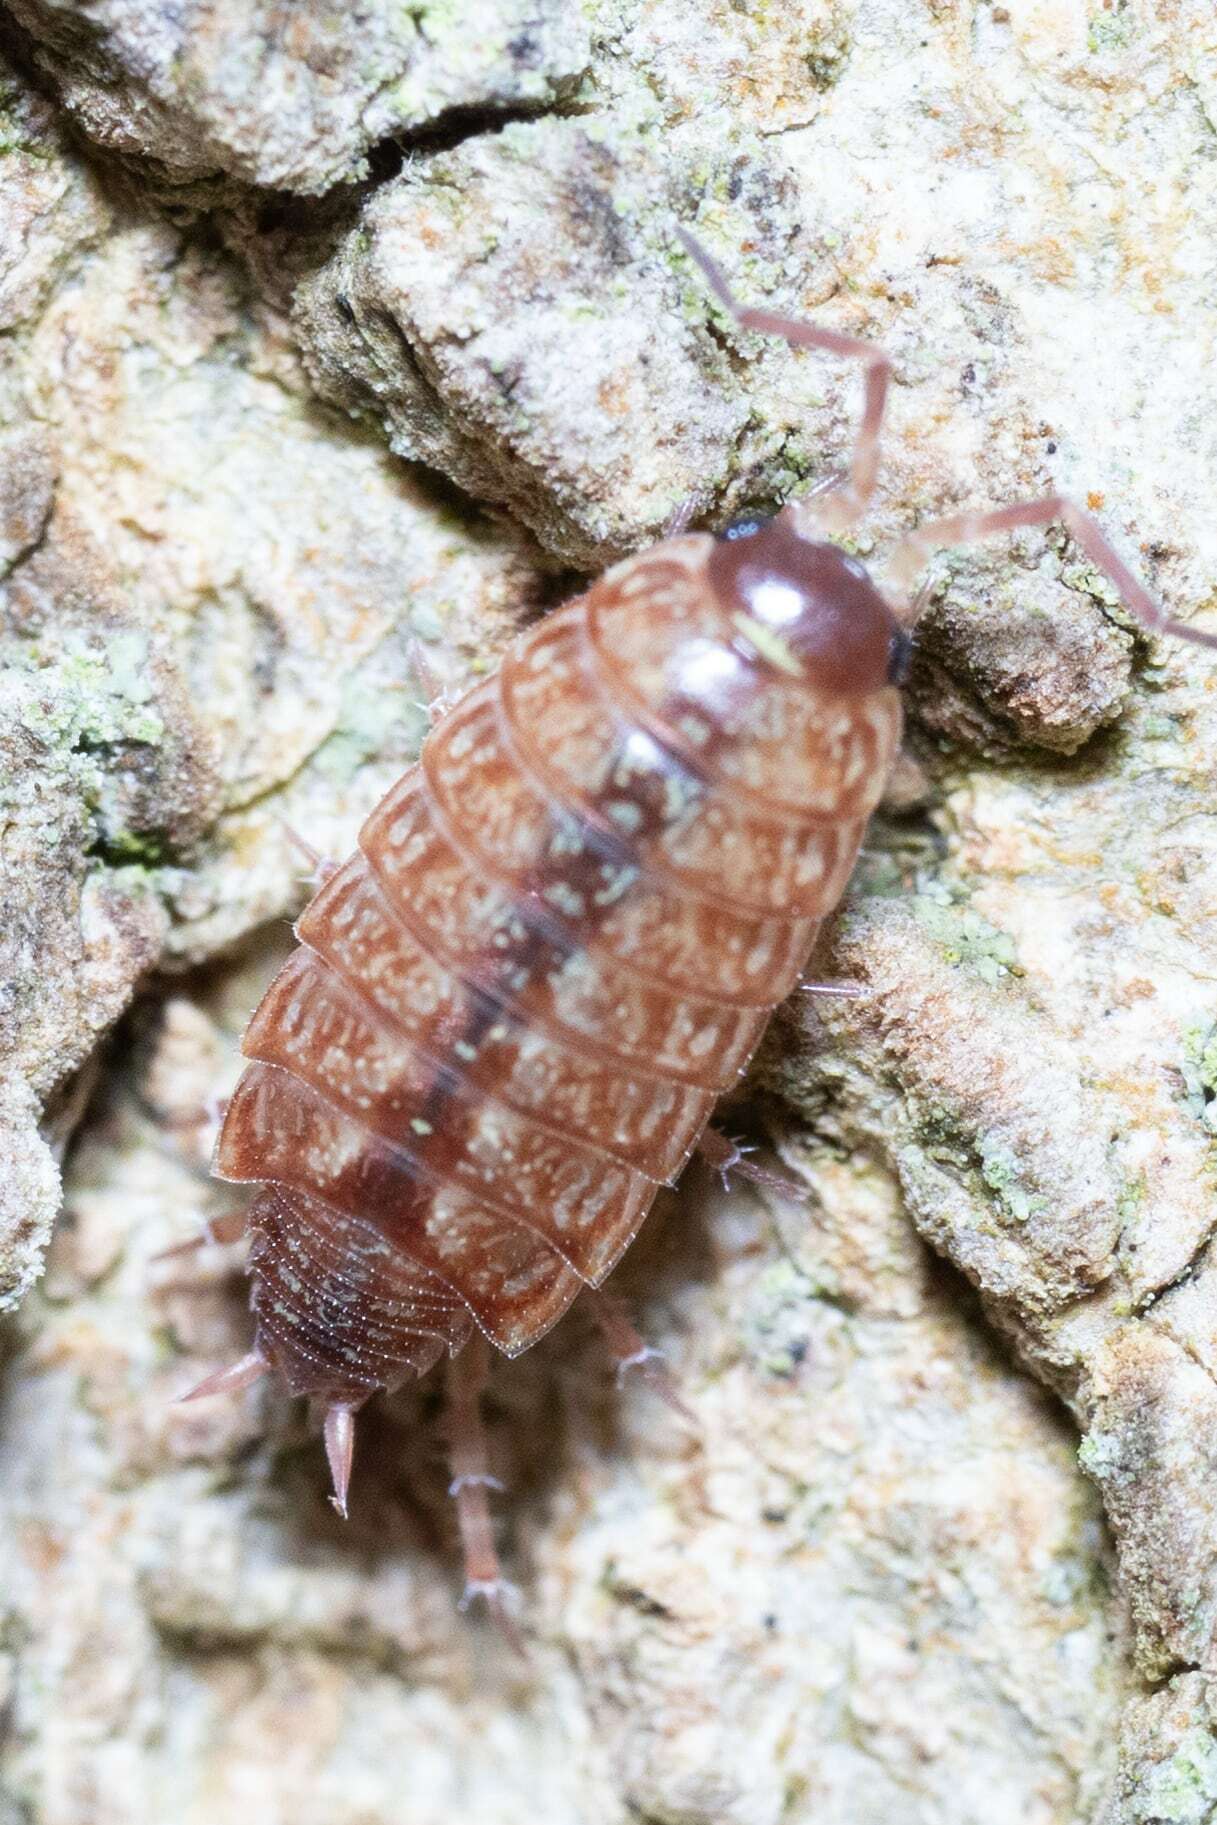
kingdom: Animalia
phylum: Arthropoda
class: Malacostraca
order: Isopoda
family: Philosciidae
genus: Philoscia
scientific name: Philoscia muscorum
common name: Common striped woodlouse
